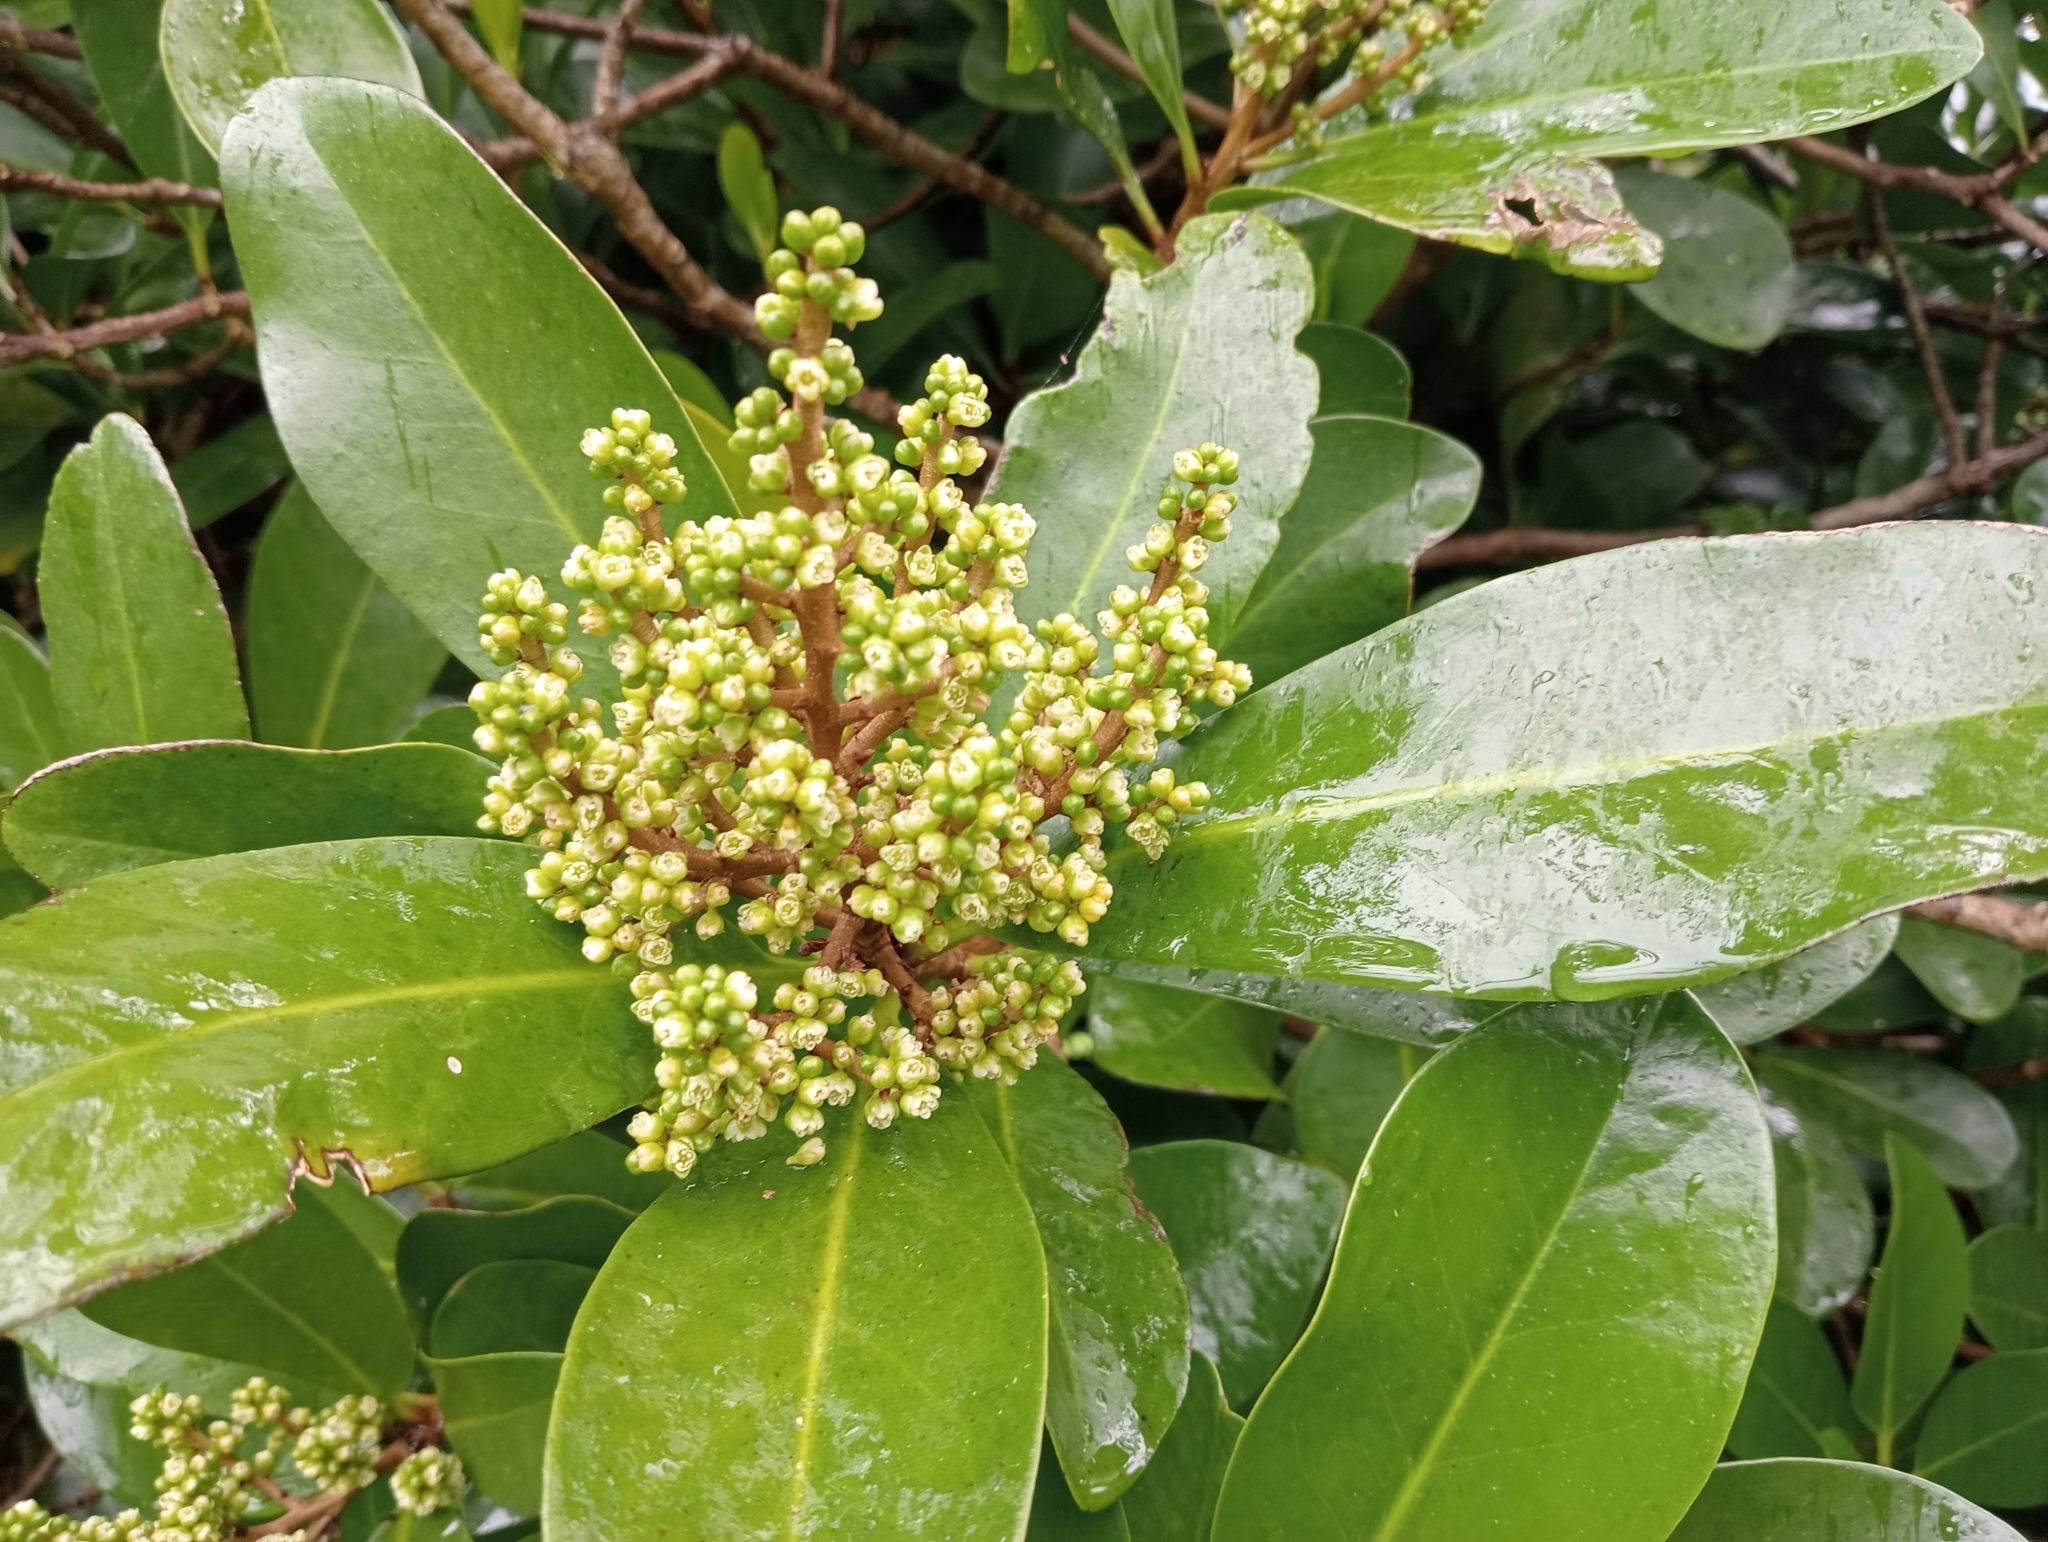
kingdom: Plantae
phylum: Tracheophyta
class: Magnoliopsida
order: Cucurbitales
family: Corynocarpaceae
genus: Corynocarpus
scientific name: Corynocarpus laevigatus
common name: New zealand laurel
